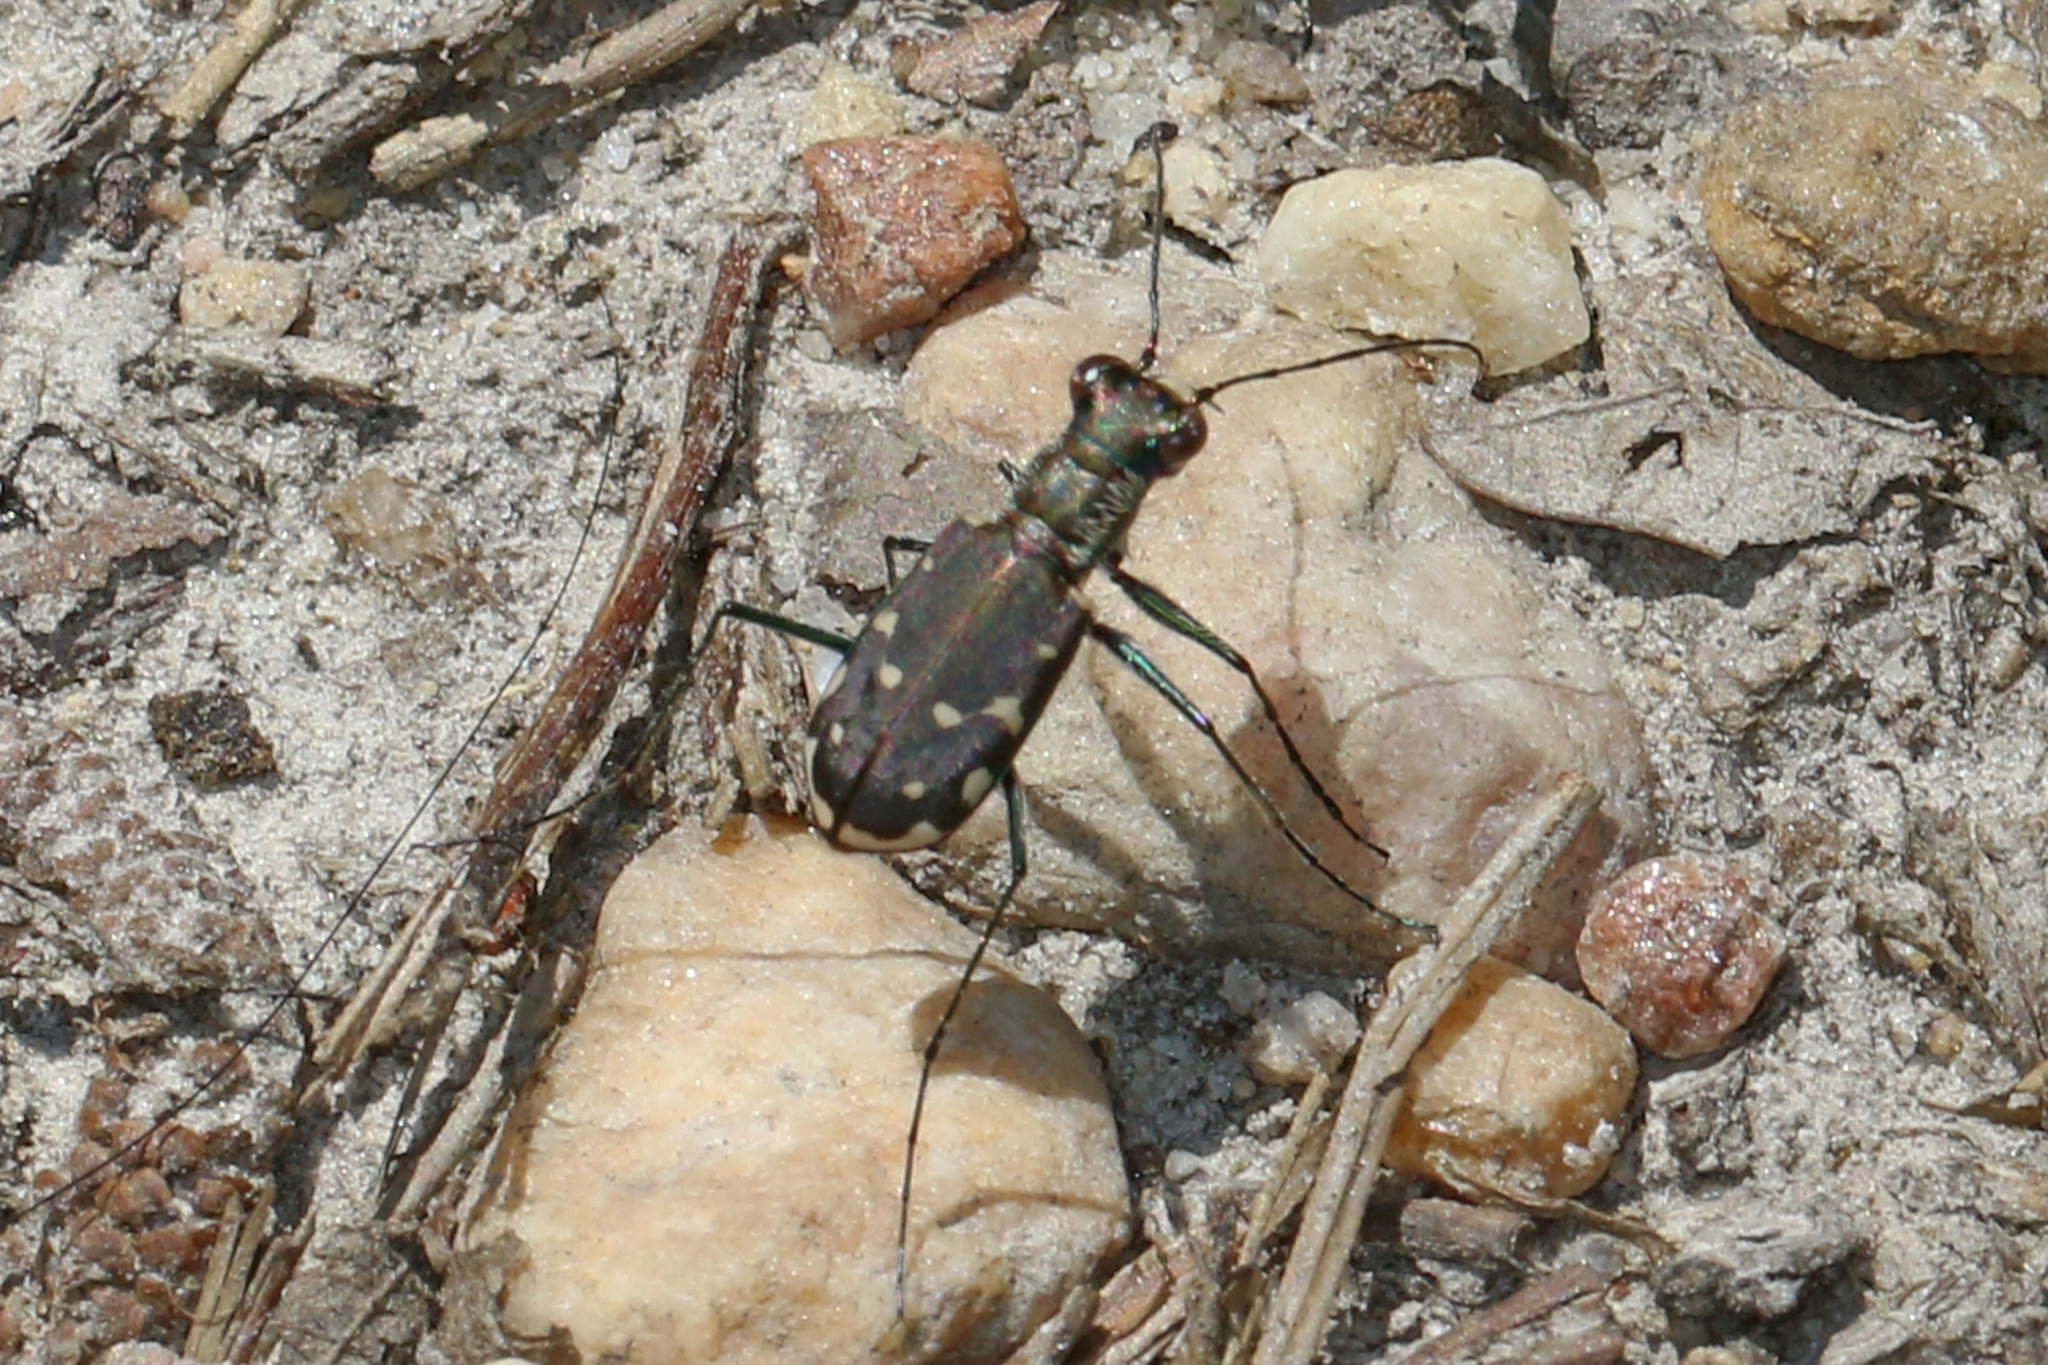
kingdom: Animalia
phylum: Arthropoda
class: Insecta
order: Coleoptera
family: Carabidae
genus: Cicindela
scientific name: Cicindela rufiventris
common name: Eastern red-bellied tiger beetle
